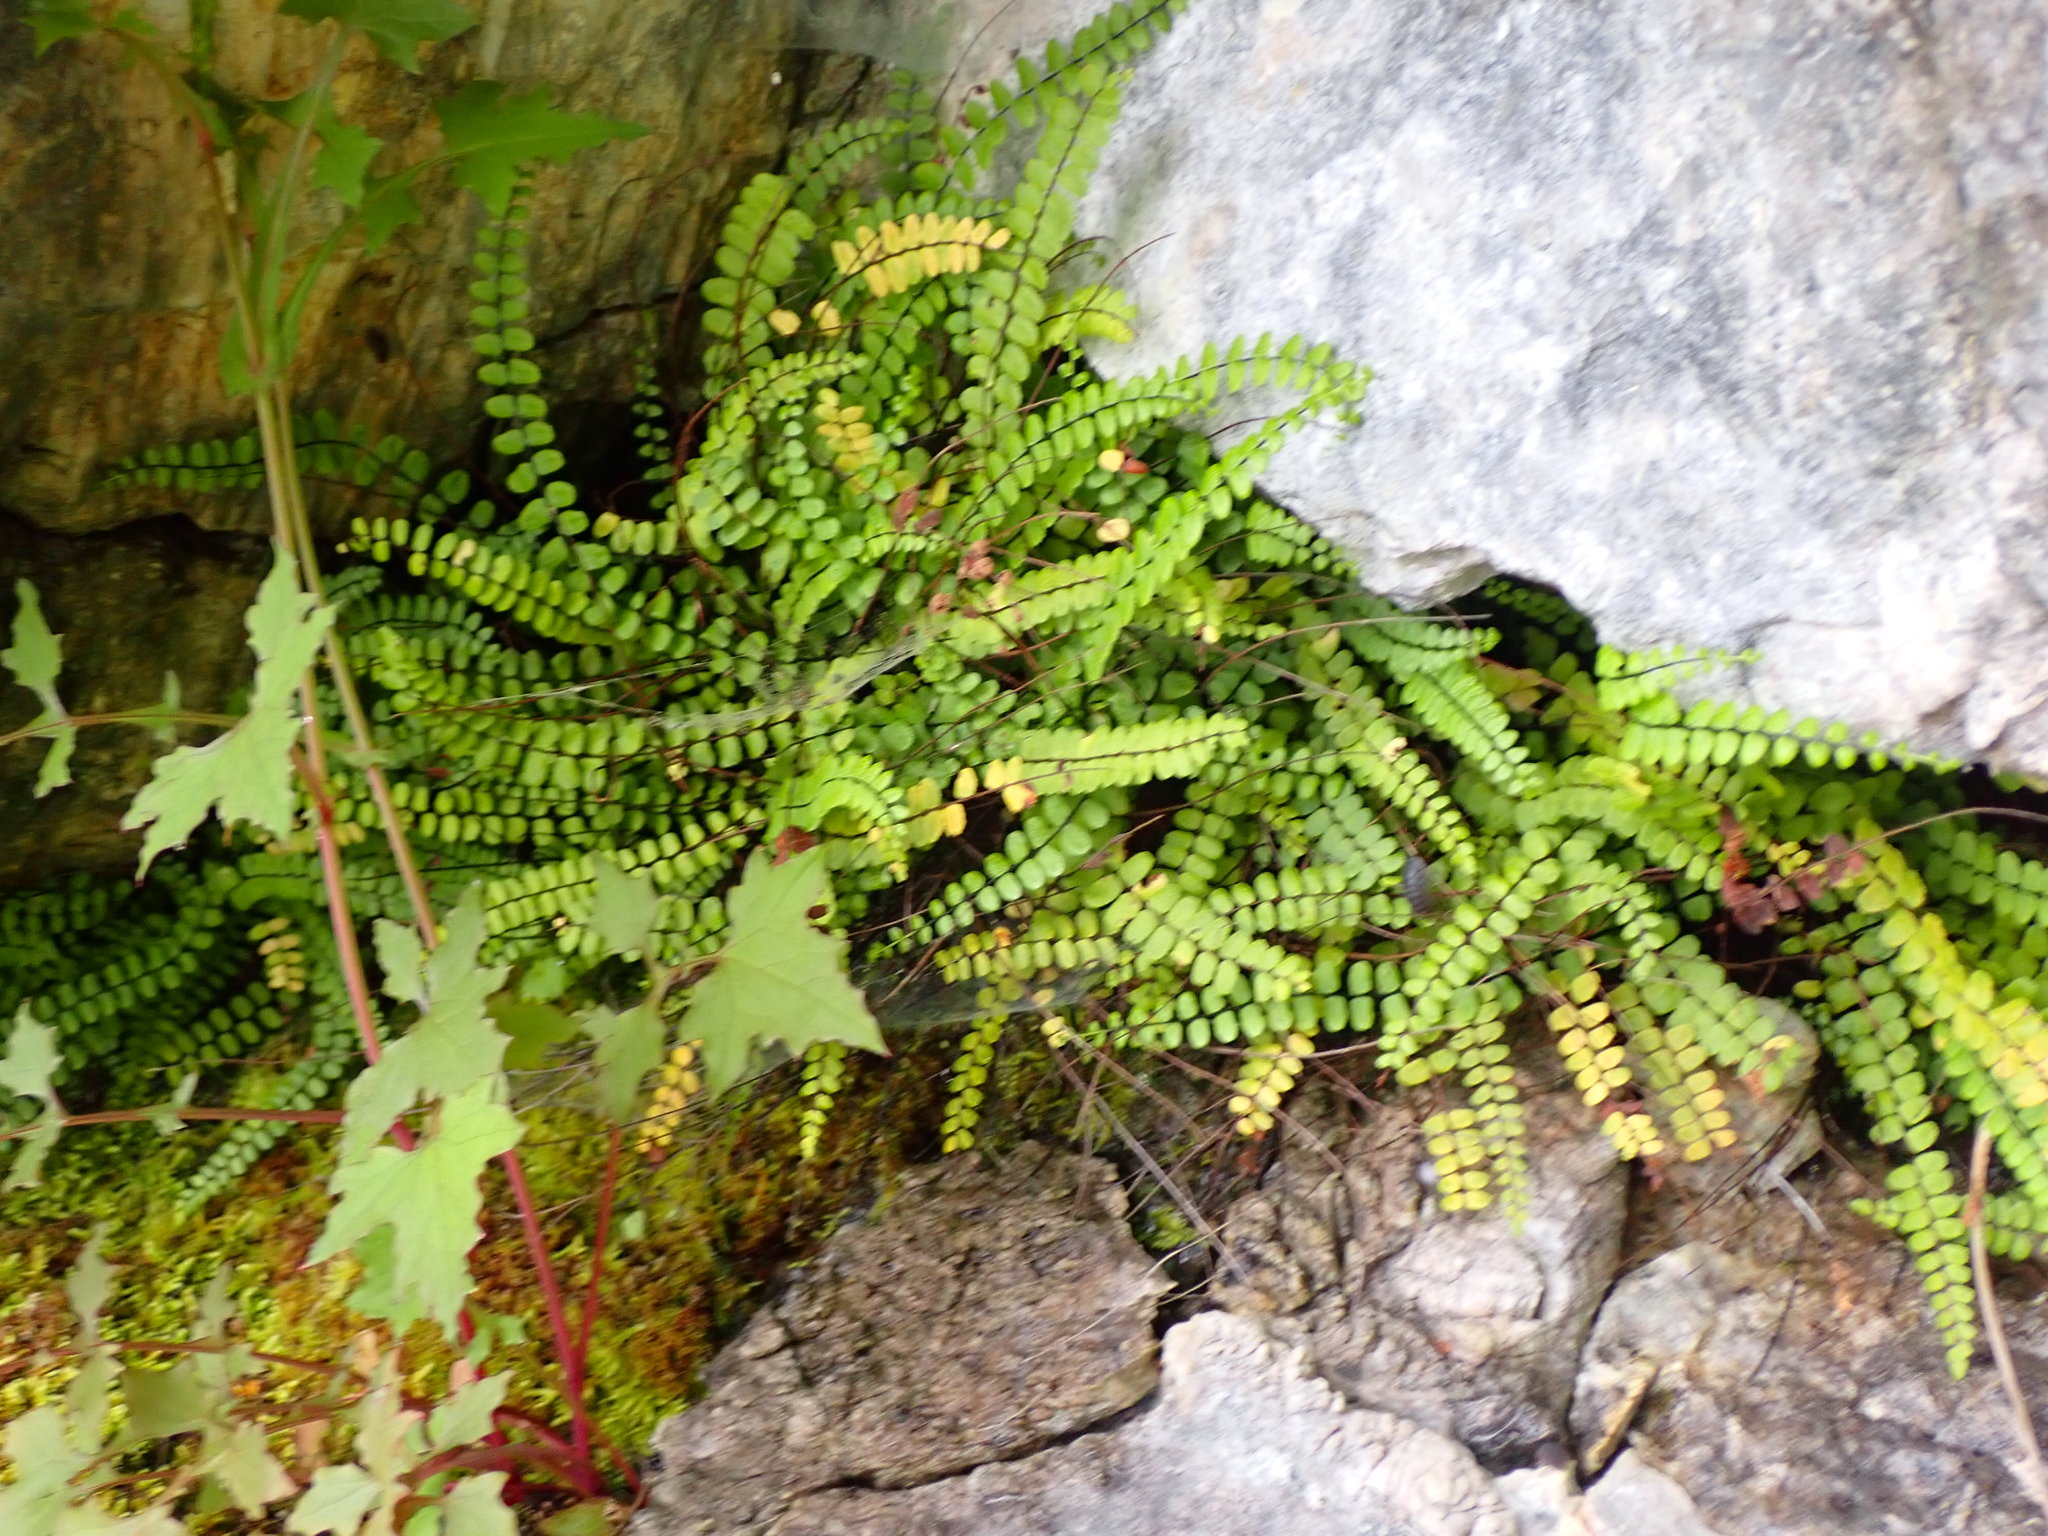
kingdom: Plantae
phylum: Tracheophyta
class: Polypodiopsida
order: Polypodiales
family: Aspleniaceae
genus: Asplenium
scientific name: Asplenium trichomanes
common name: Maidenhair spleenwort
